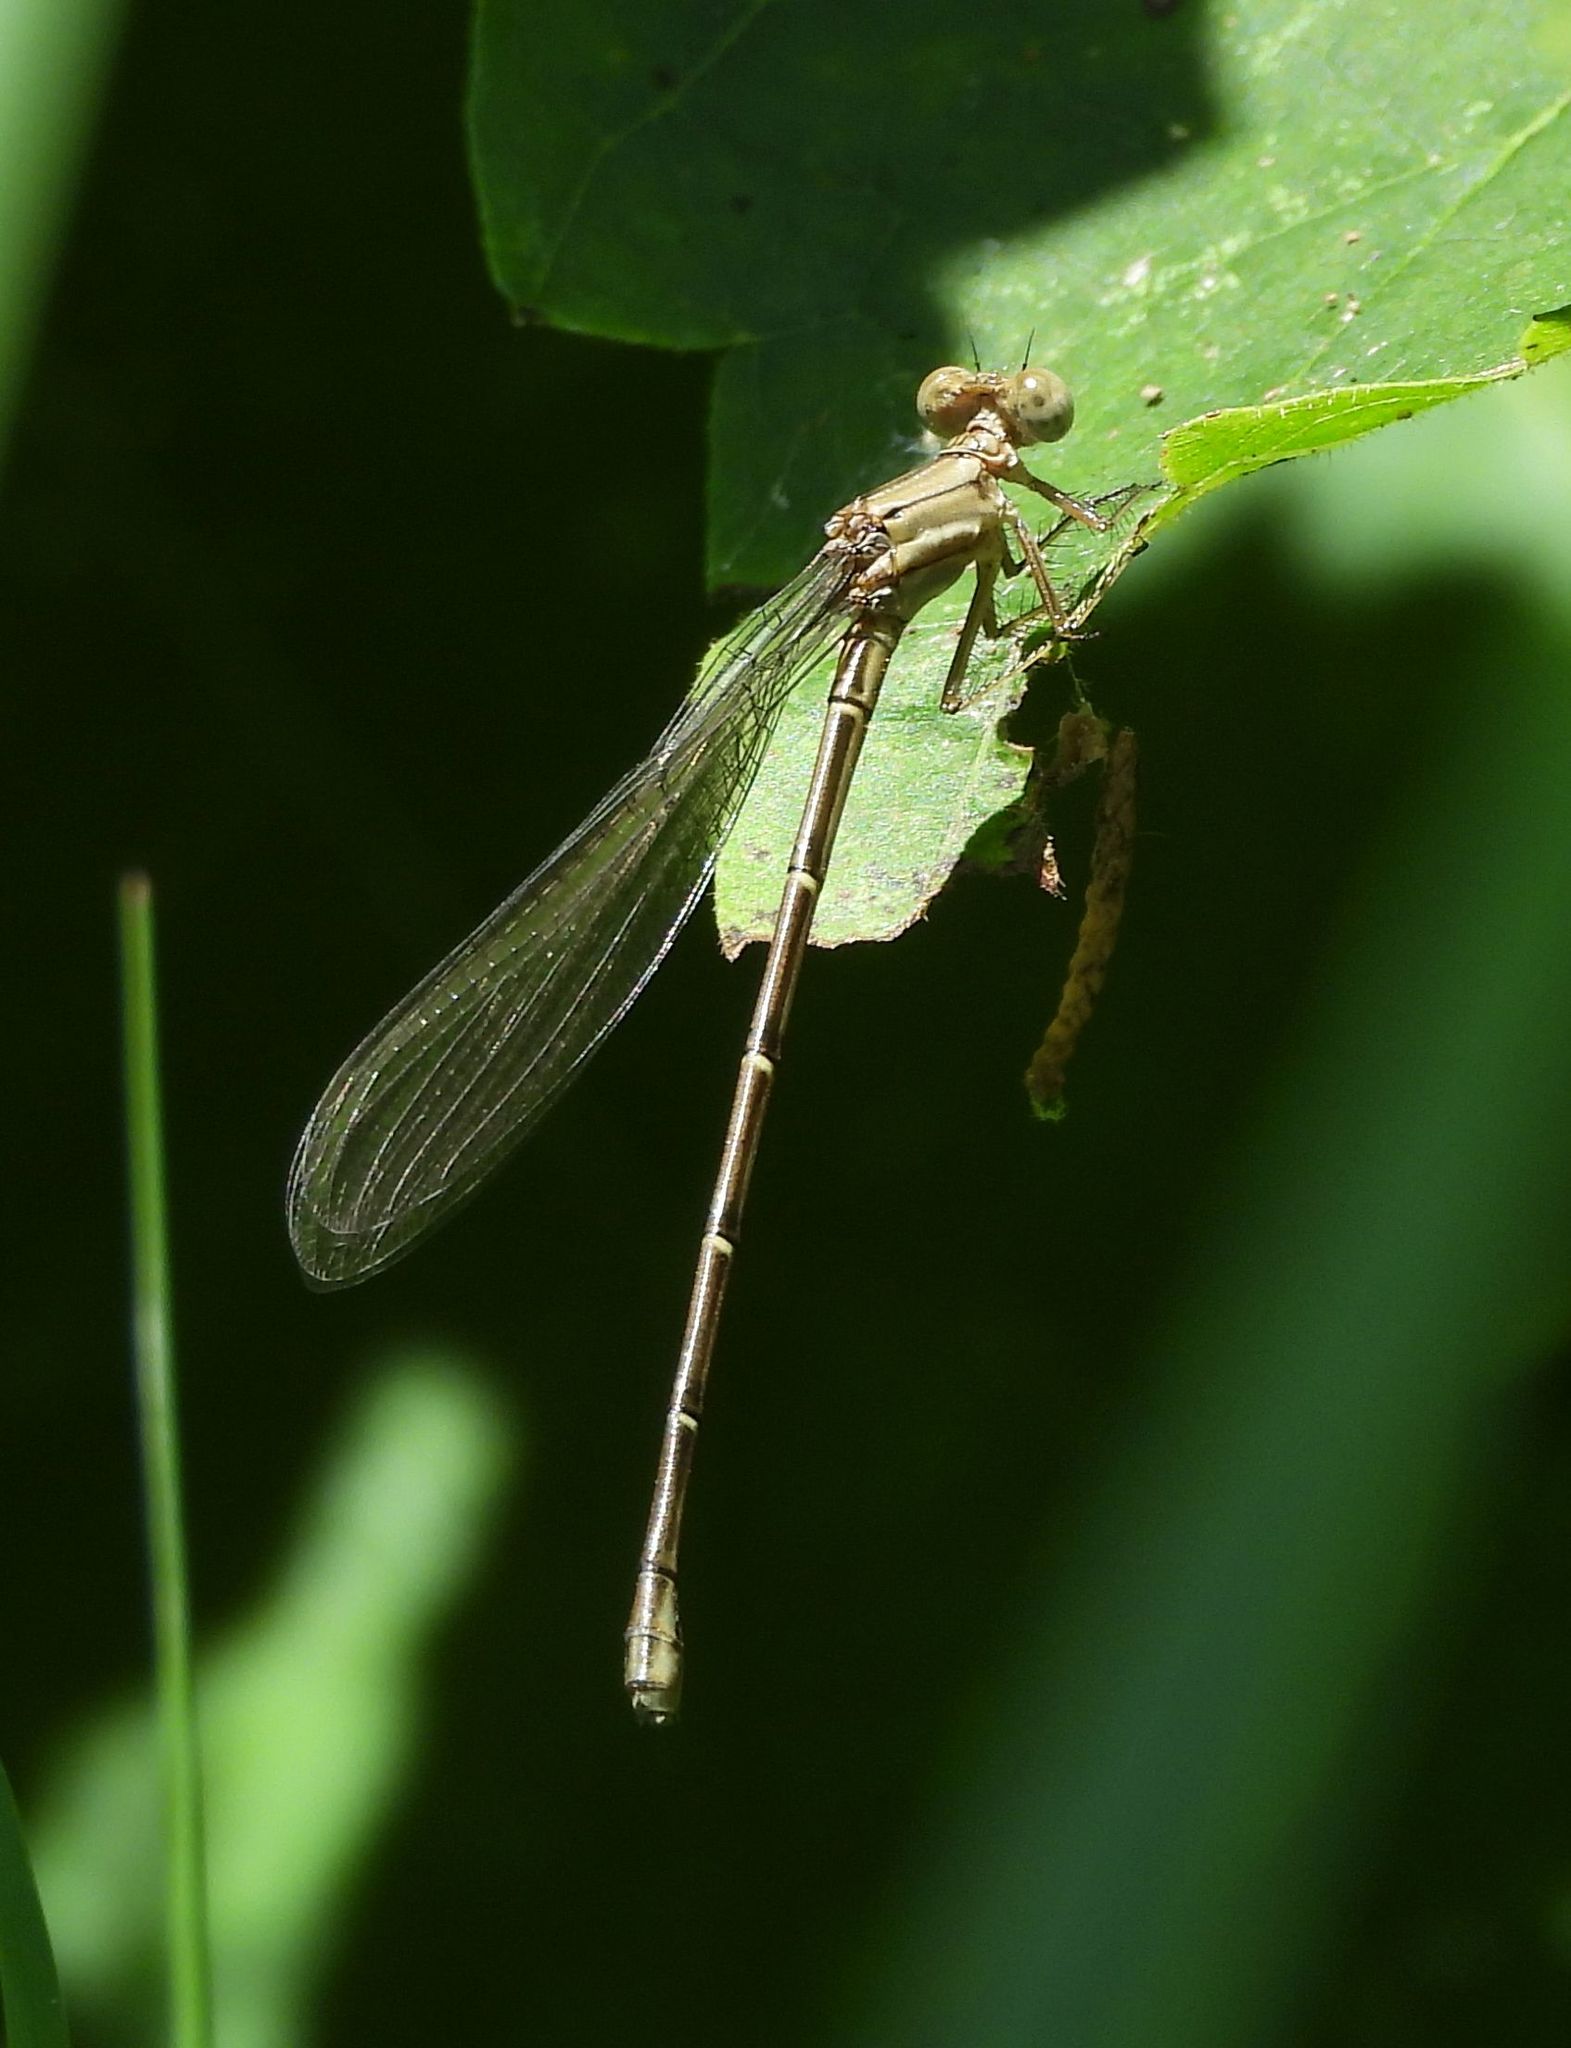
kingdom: Animalia
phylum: Arthropoda
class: Insecta
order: Odonata
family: Coenagrionidae
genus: Argia
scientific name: Argia moesta
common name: Powdered dancer
